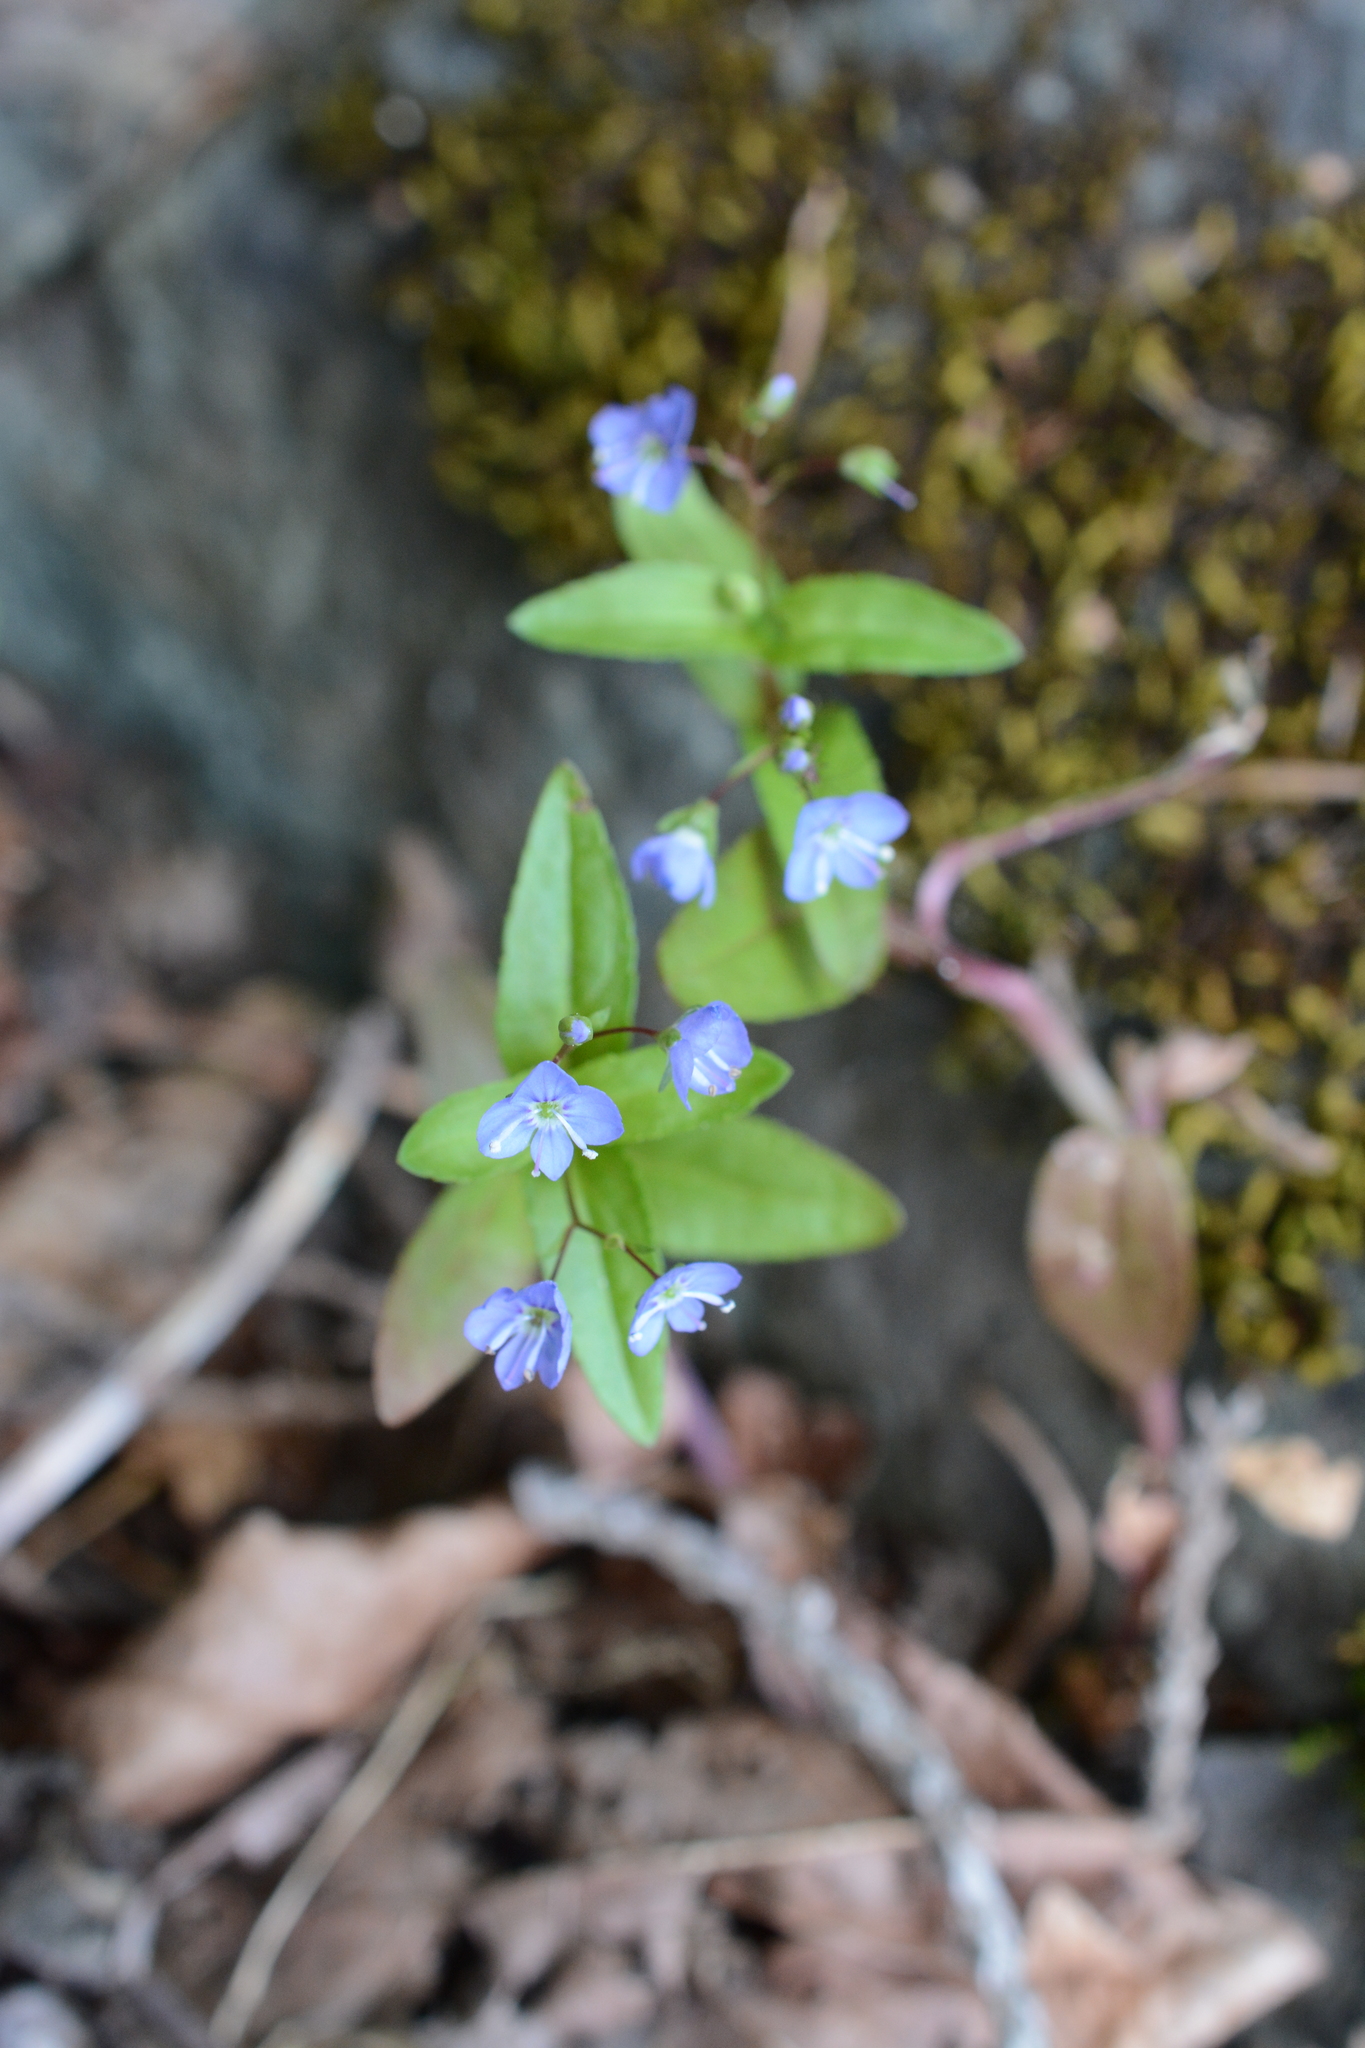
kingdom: Plantae
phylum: Tracheophyta
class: Magnoliopsida
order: Lamiales
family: Plantaginaceae
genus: Veronica
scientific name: Veronica americana
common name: American brooklime
